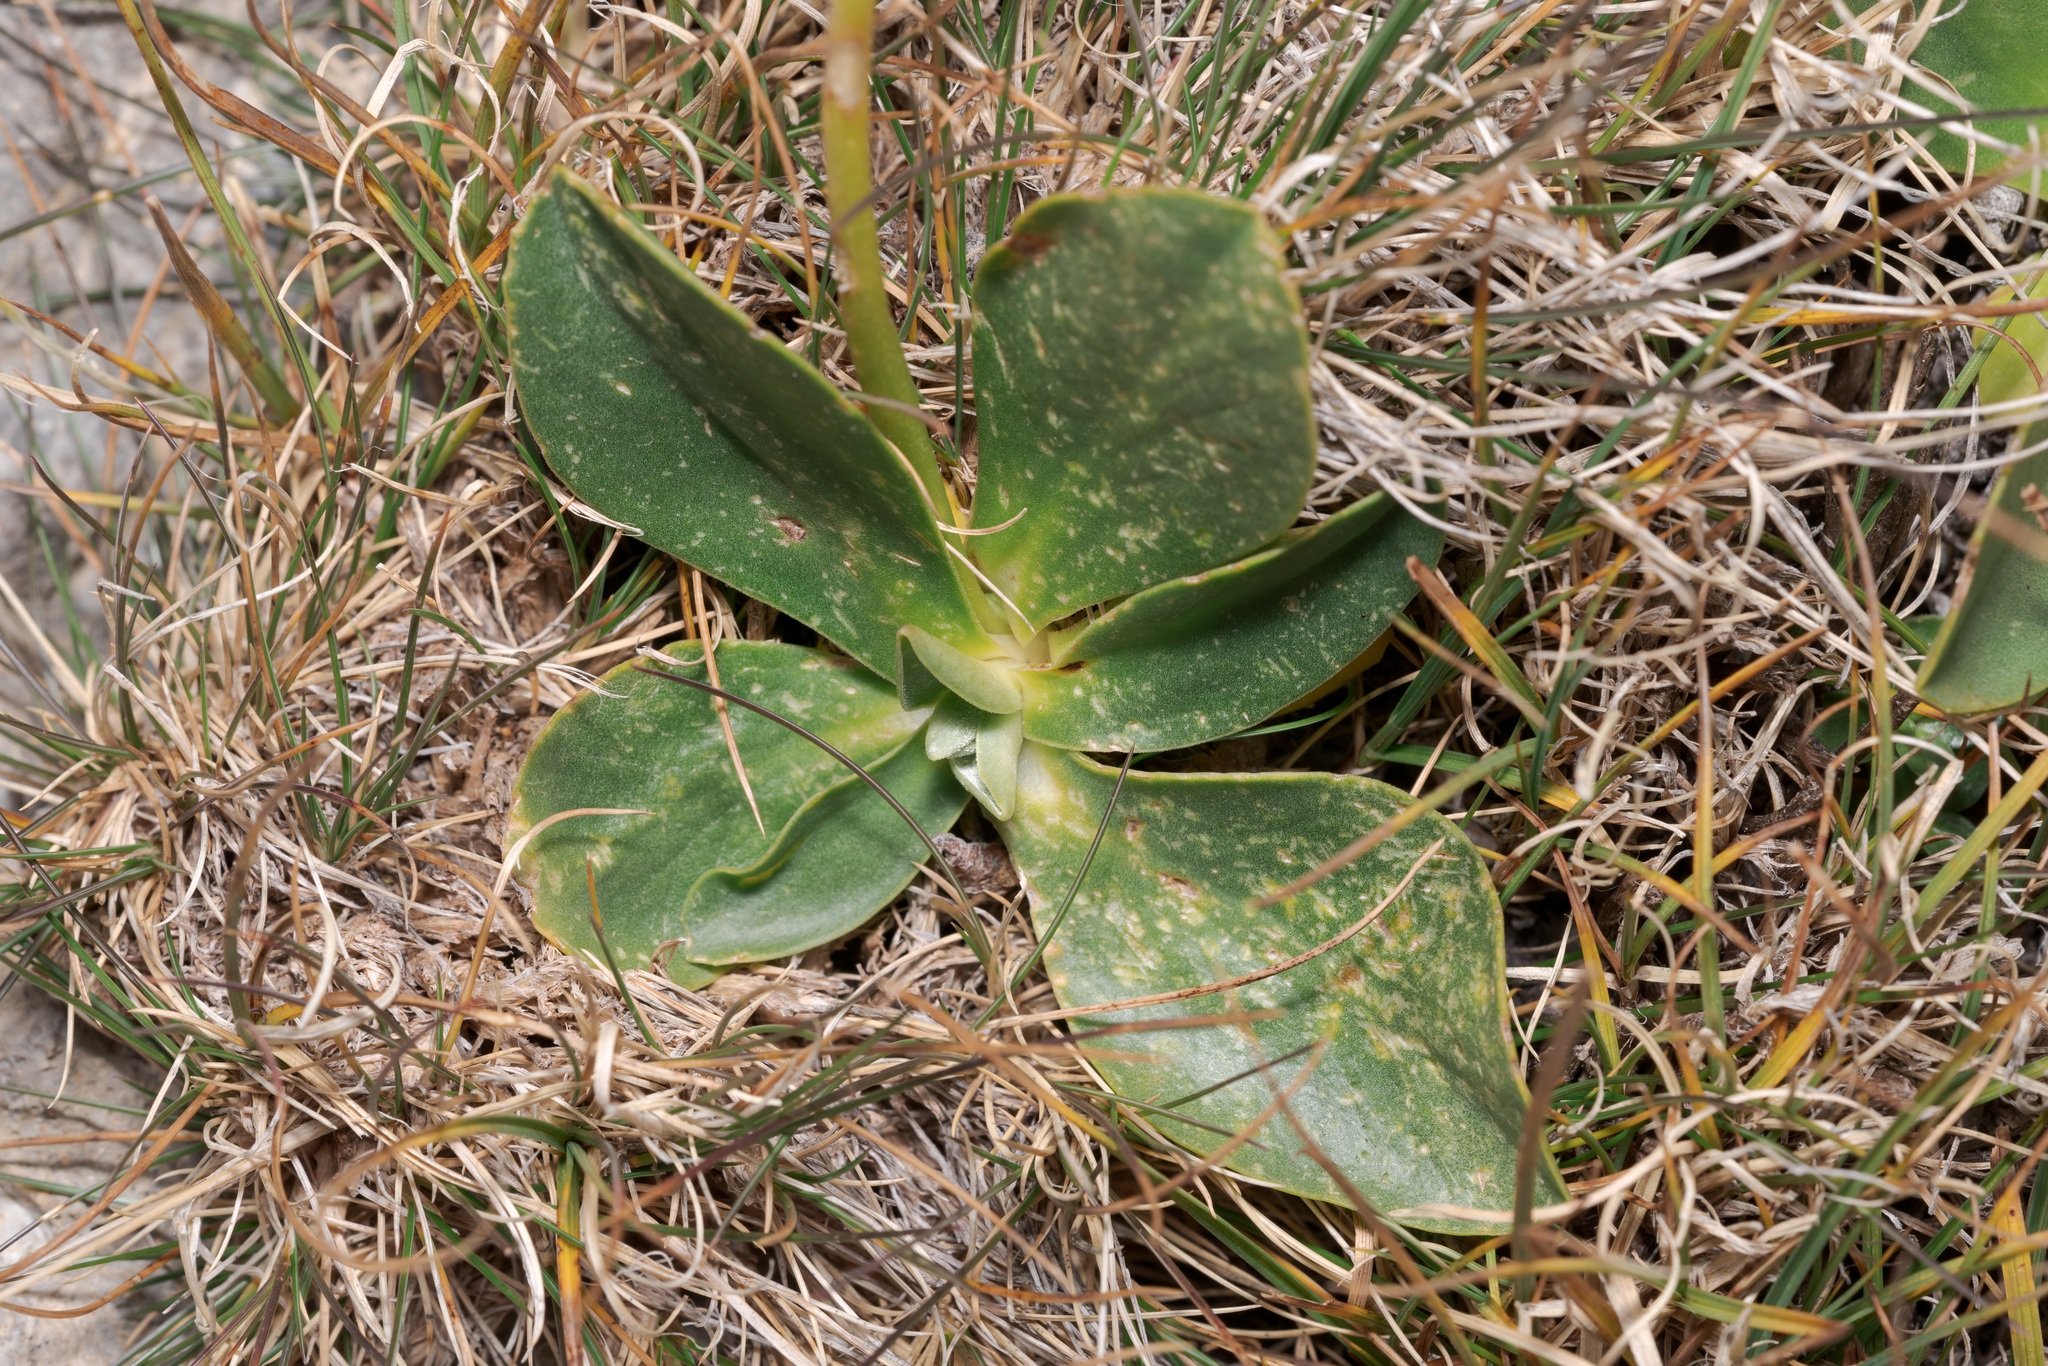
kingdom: Plantae
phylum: Tracheophyta
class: Magnoliopsida
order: Ericales
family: Primulaceae
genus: Primula
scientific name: Primula auricula
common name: Auricula
